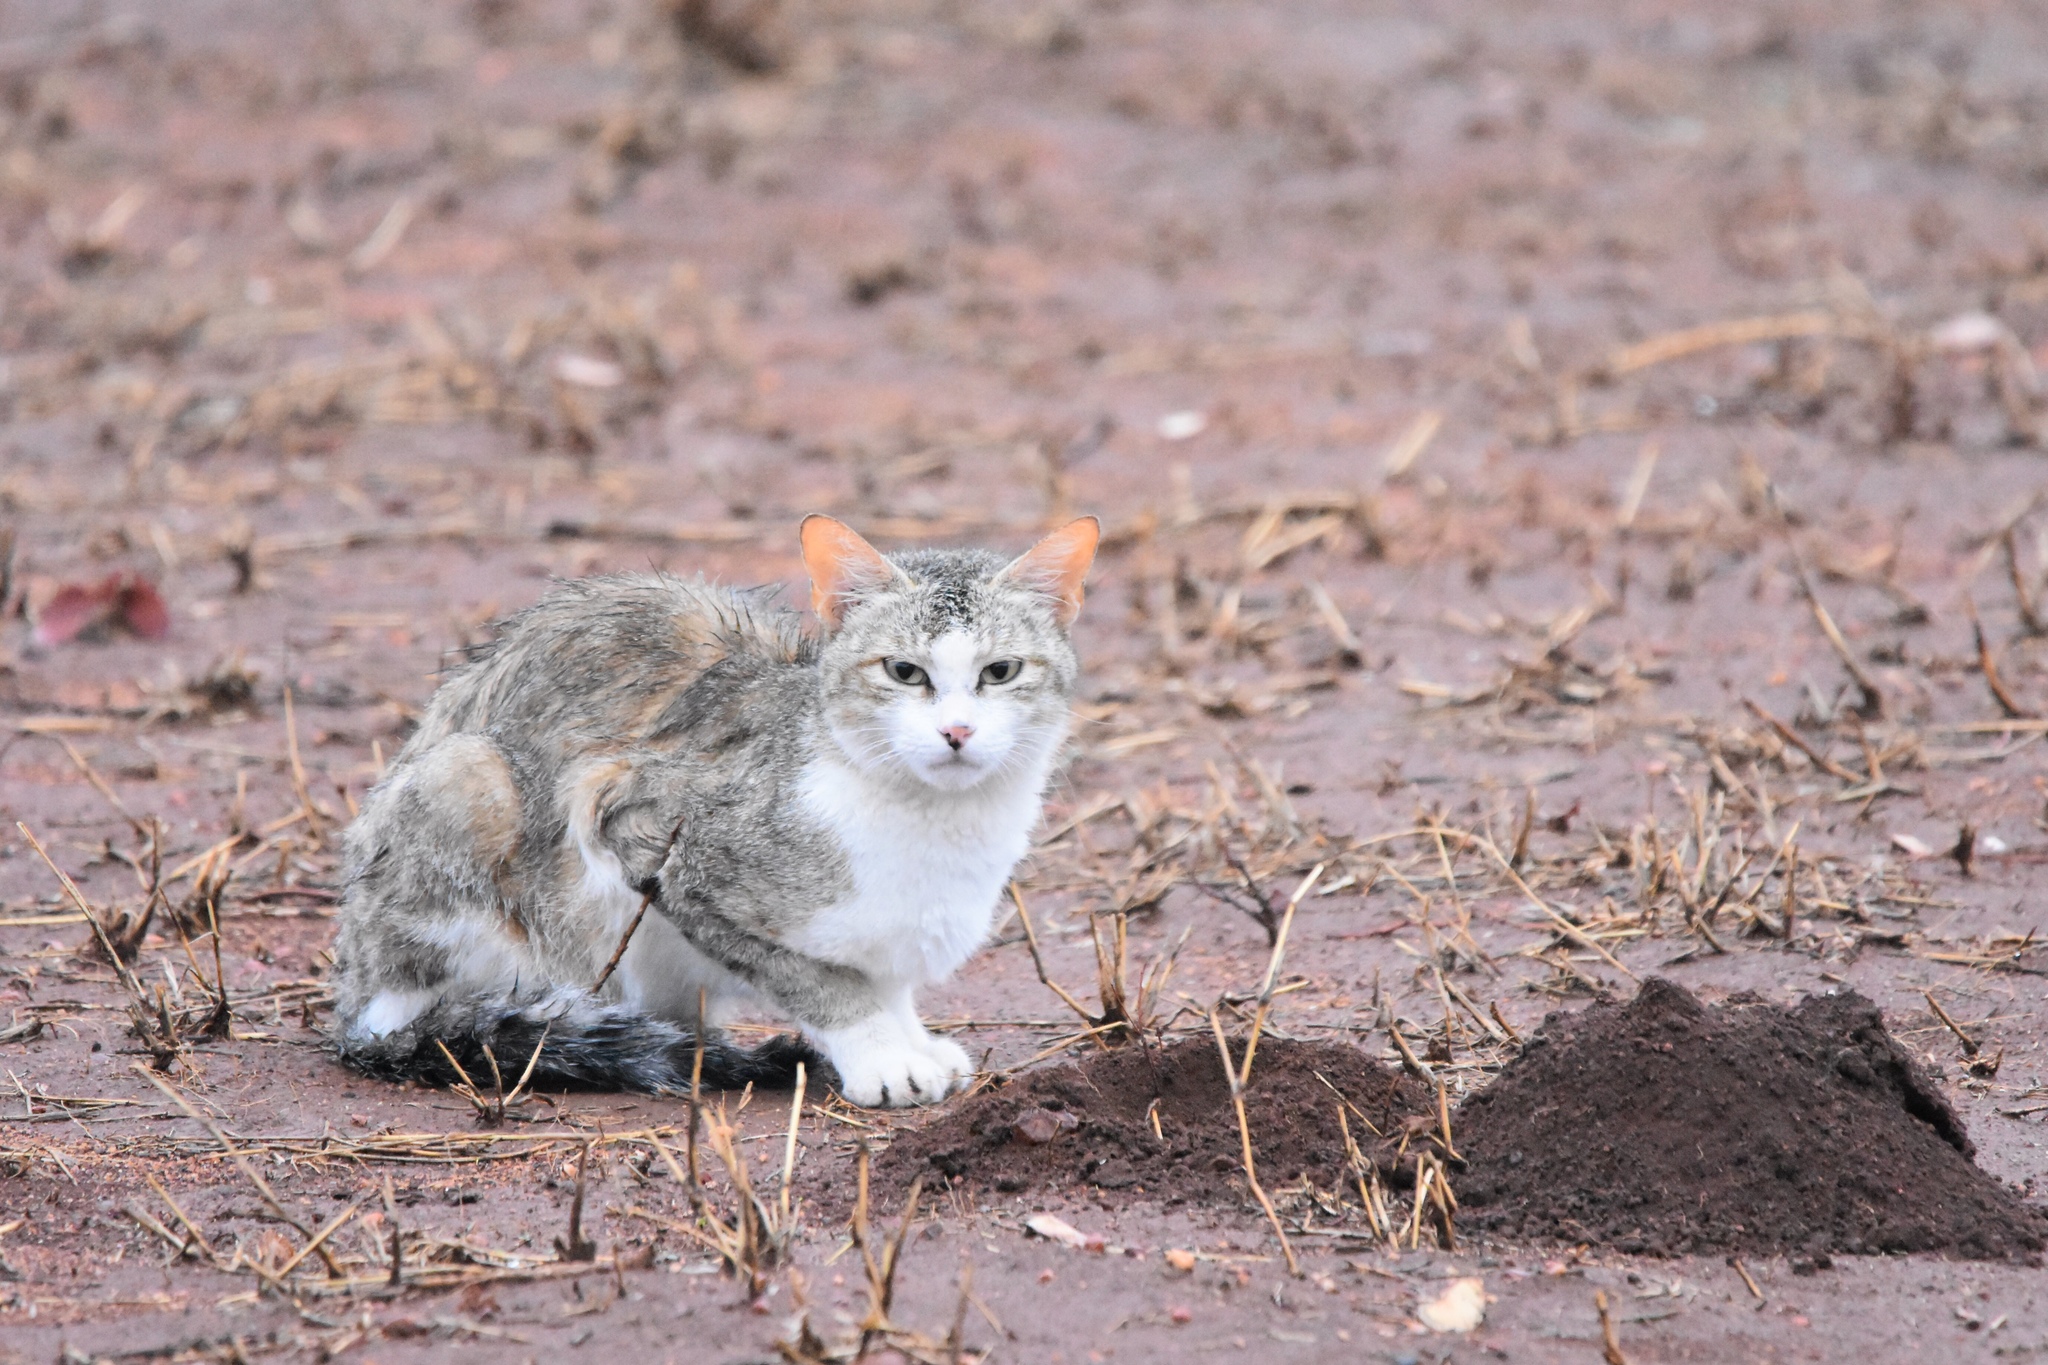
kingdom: Animalia
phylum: Chordata
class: Mammalia
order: Carnivora
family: Felidae
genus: Felis
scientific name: Felis catus
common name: Domestic cat
